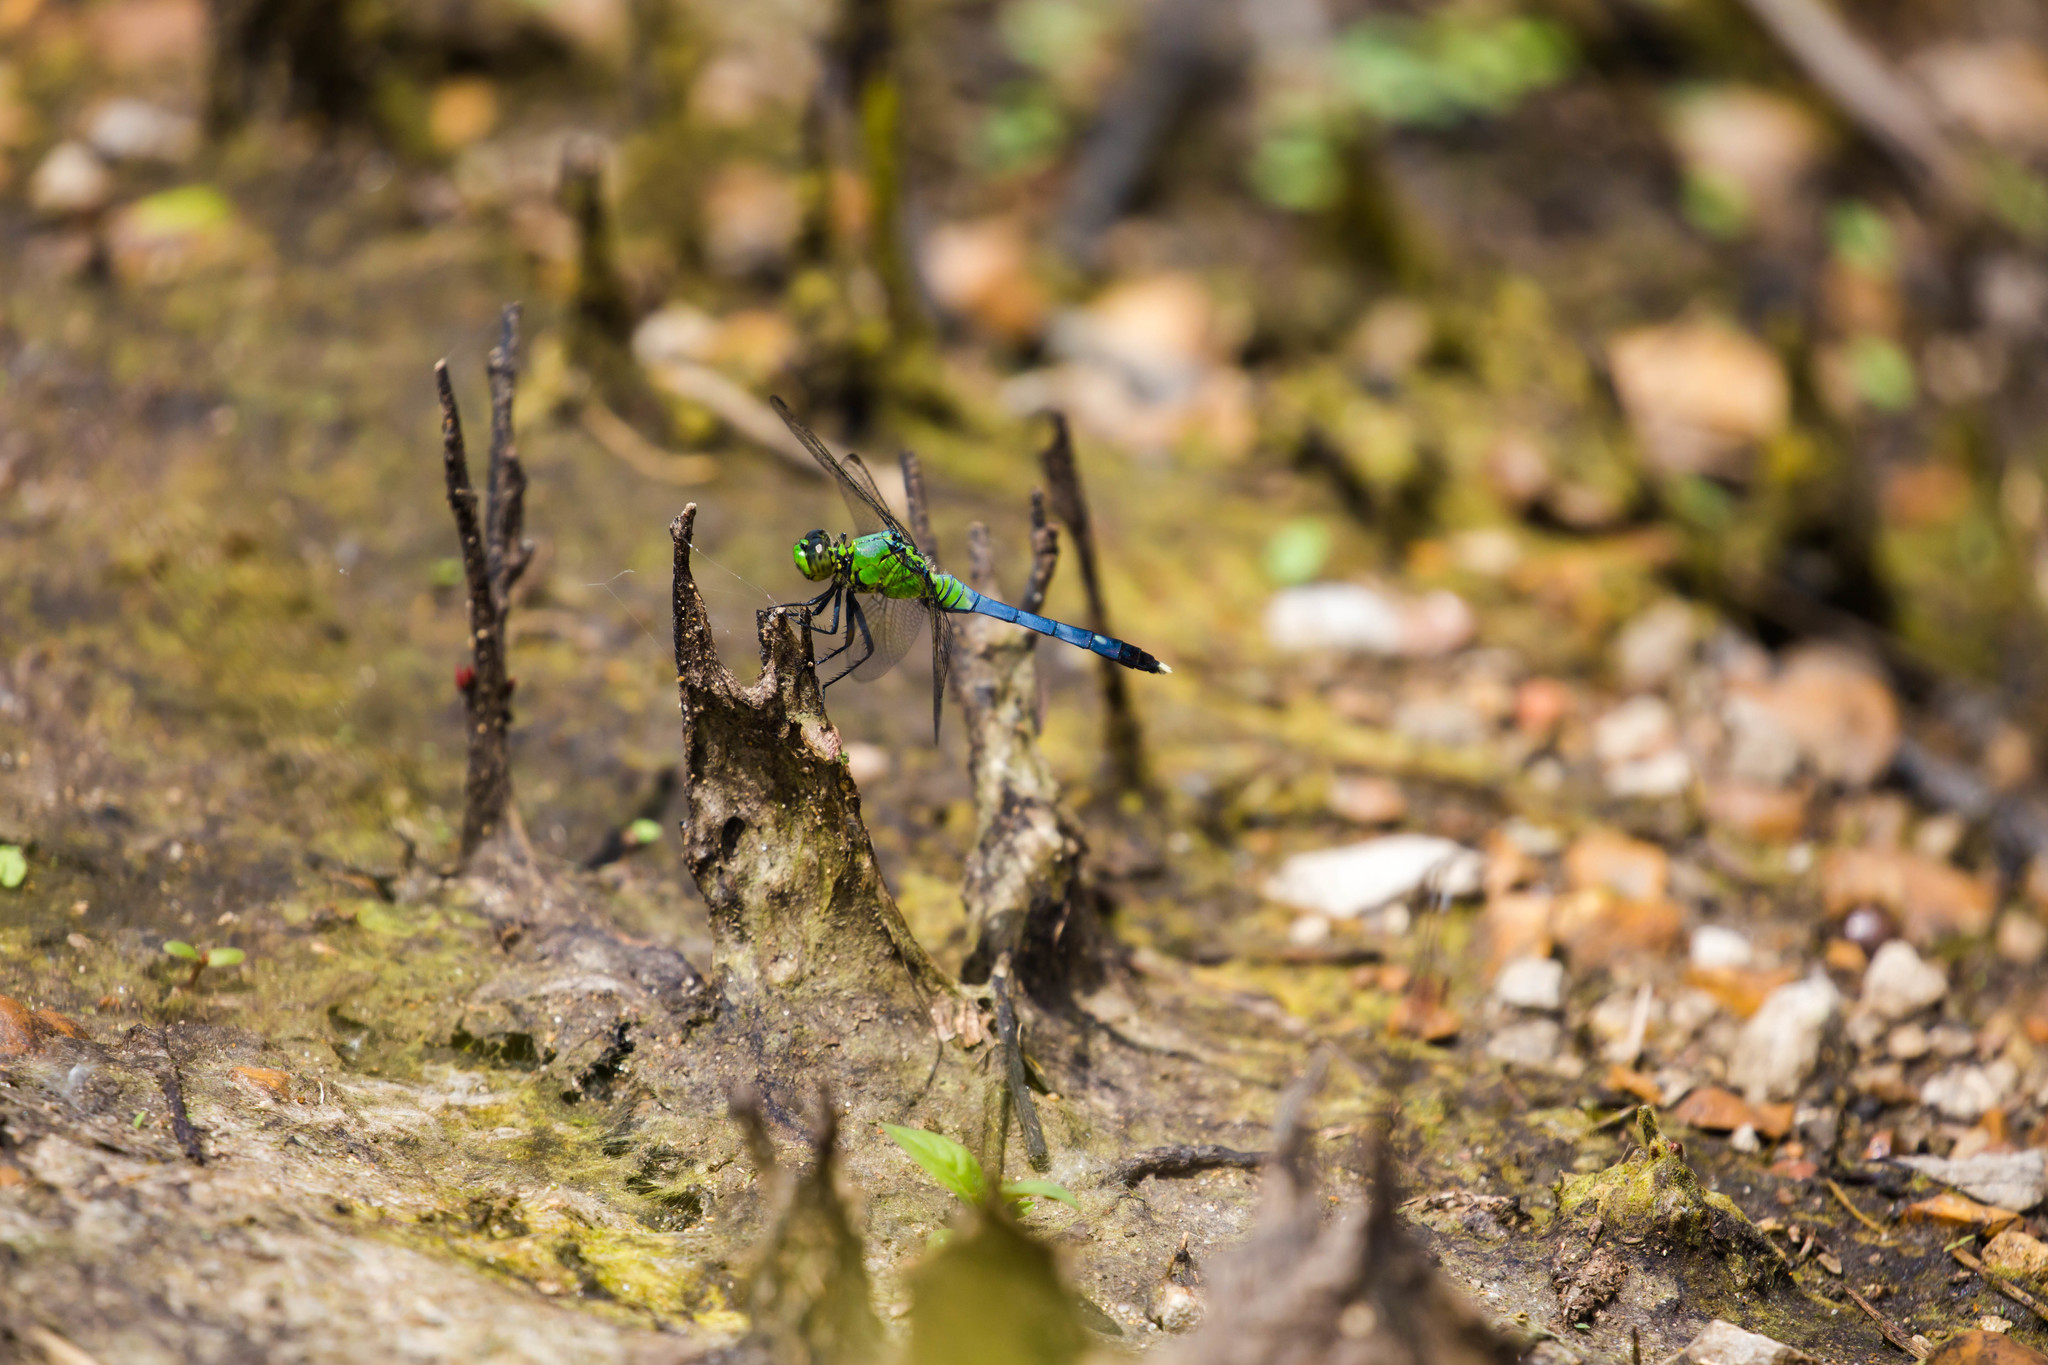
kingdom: Animalia
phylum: Arthropoda
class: Insecta
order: Odonata
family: Libellulidae
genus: Erythemis
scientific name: Erythemis simplicicollis
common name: Eastern pondhawk
